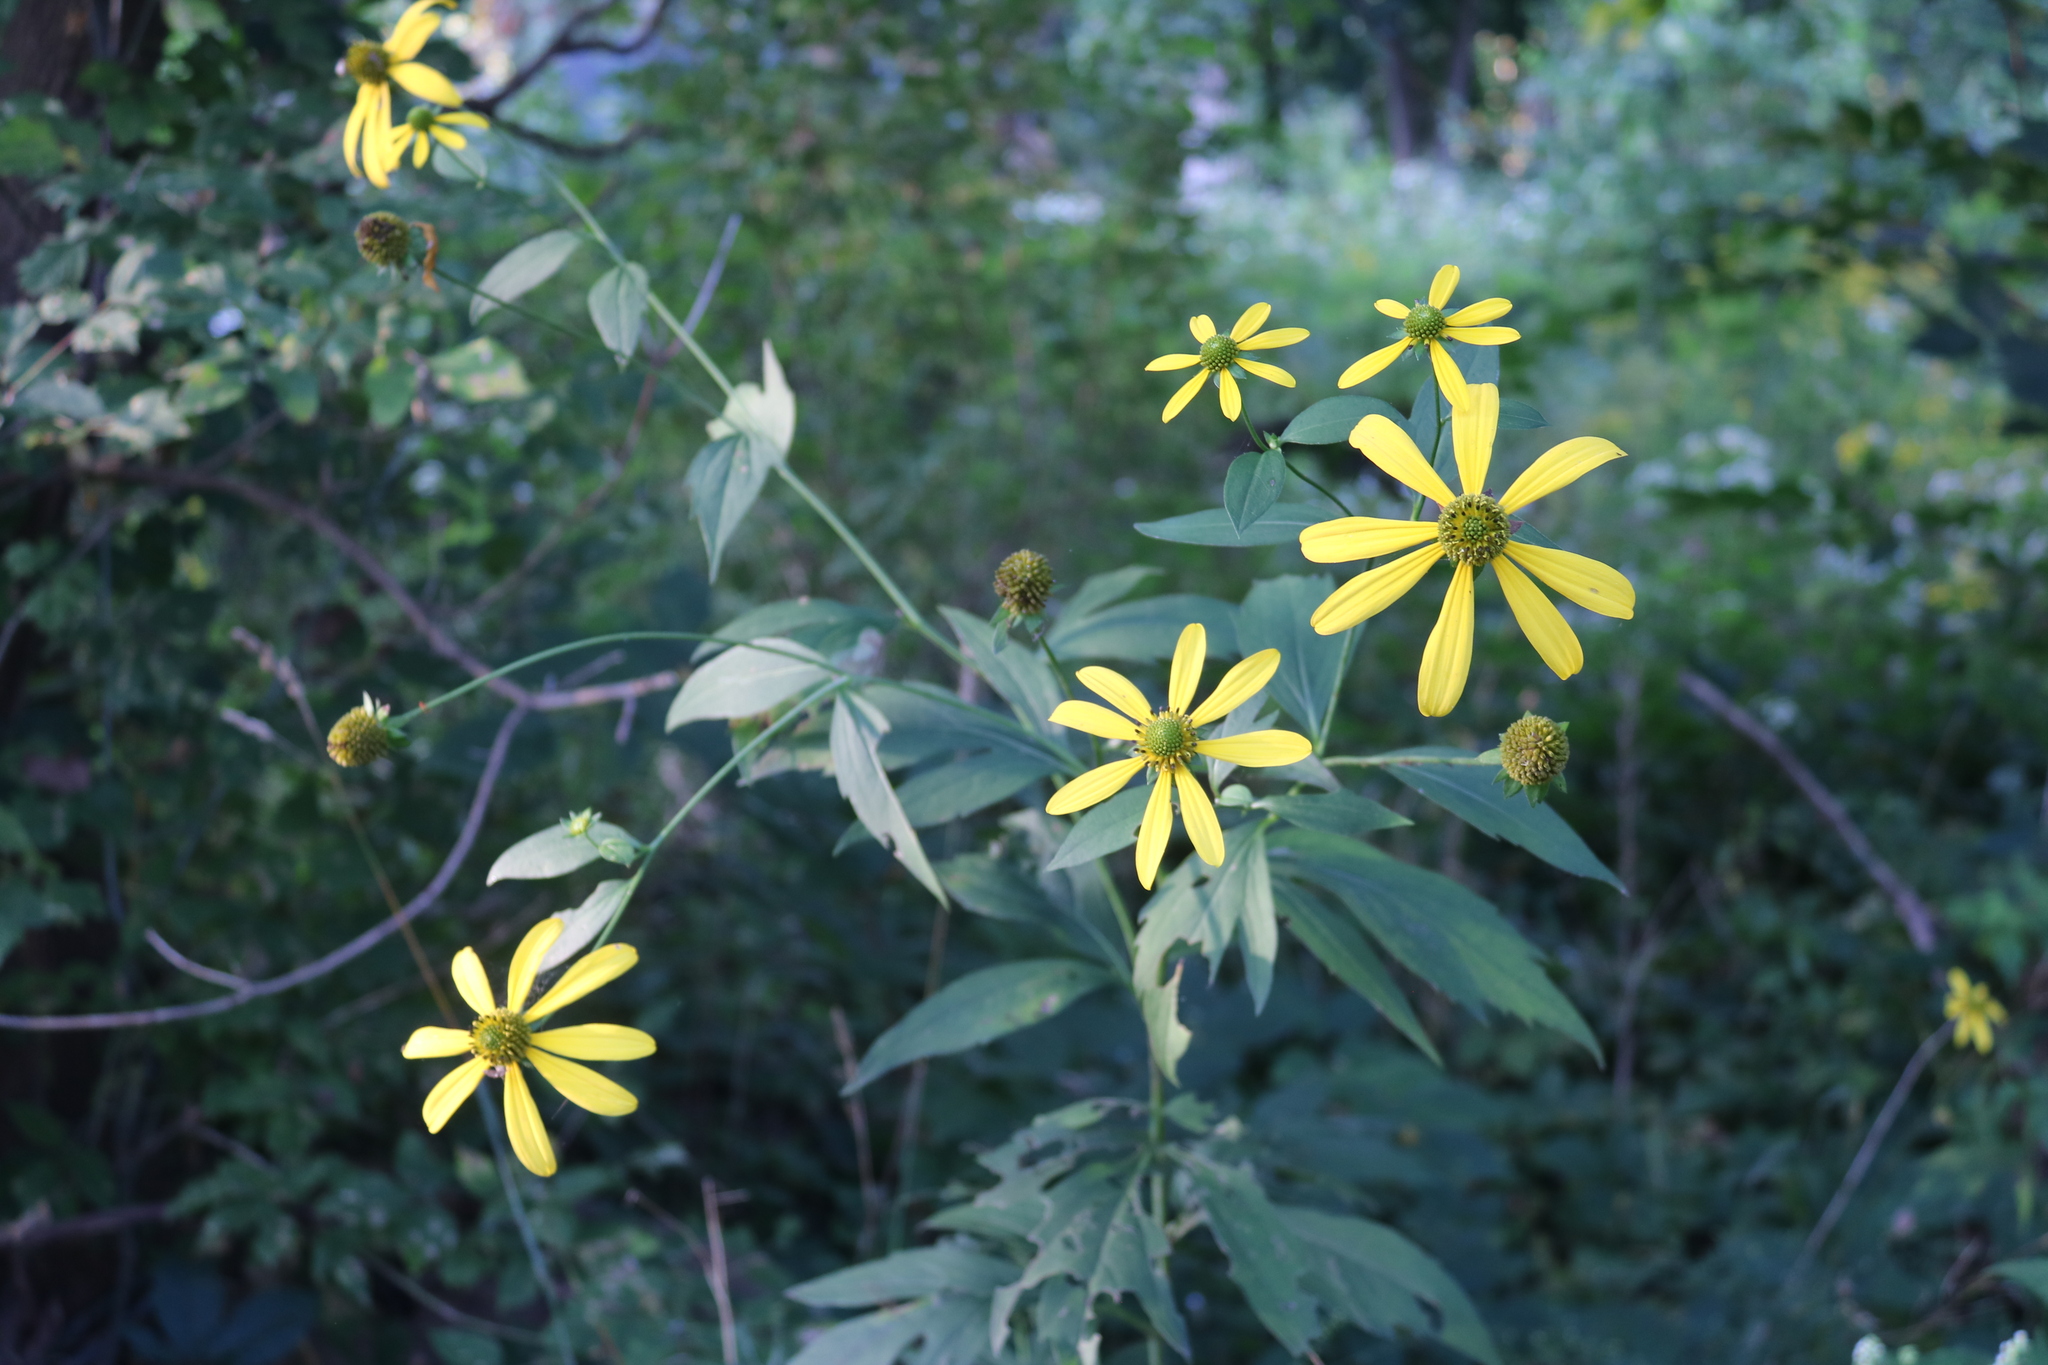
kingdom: Plantae
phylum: Tracheophyta
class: Magnoliopsida
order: Asterales
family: Asteraceae
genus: Rudbeckia
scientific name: Rudbeckia laciniata
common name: Coneflower
